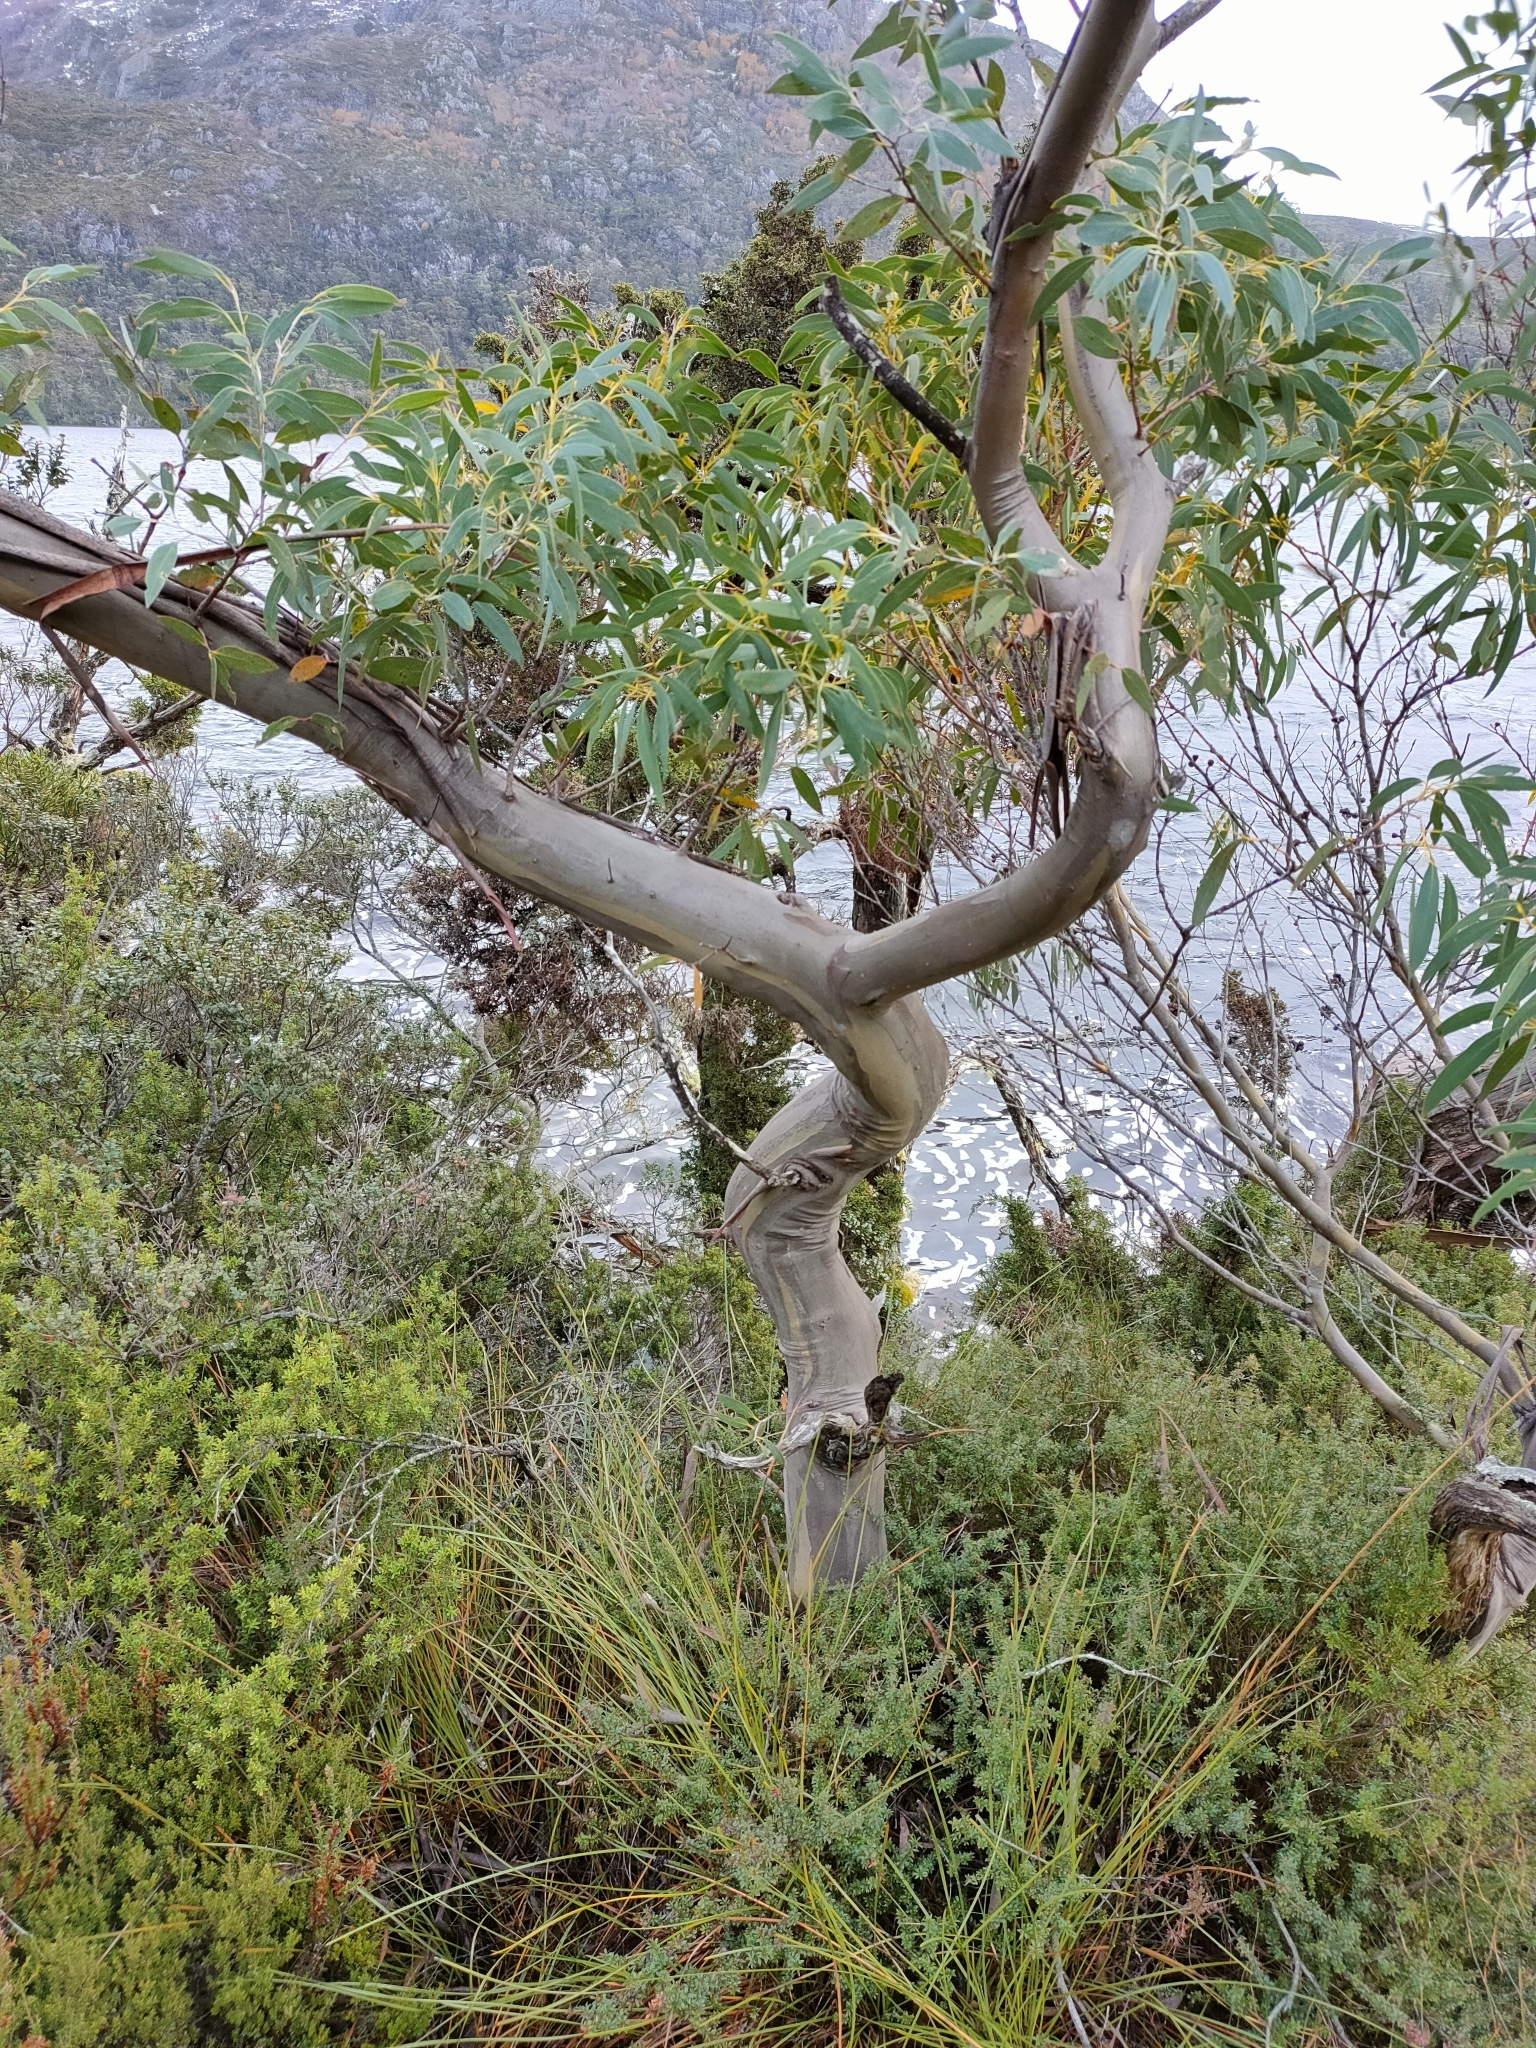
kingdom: Plantae
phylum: Tracheophyta
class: Magnoliopsida
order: Myrtales
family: Myrtaceae
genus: Eucalyptus
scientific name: Eucalyptus coccifera
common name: Tasmanian snow-gum
